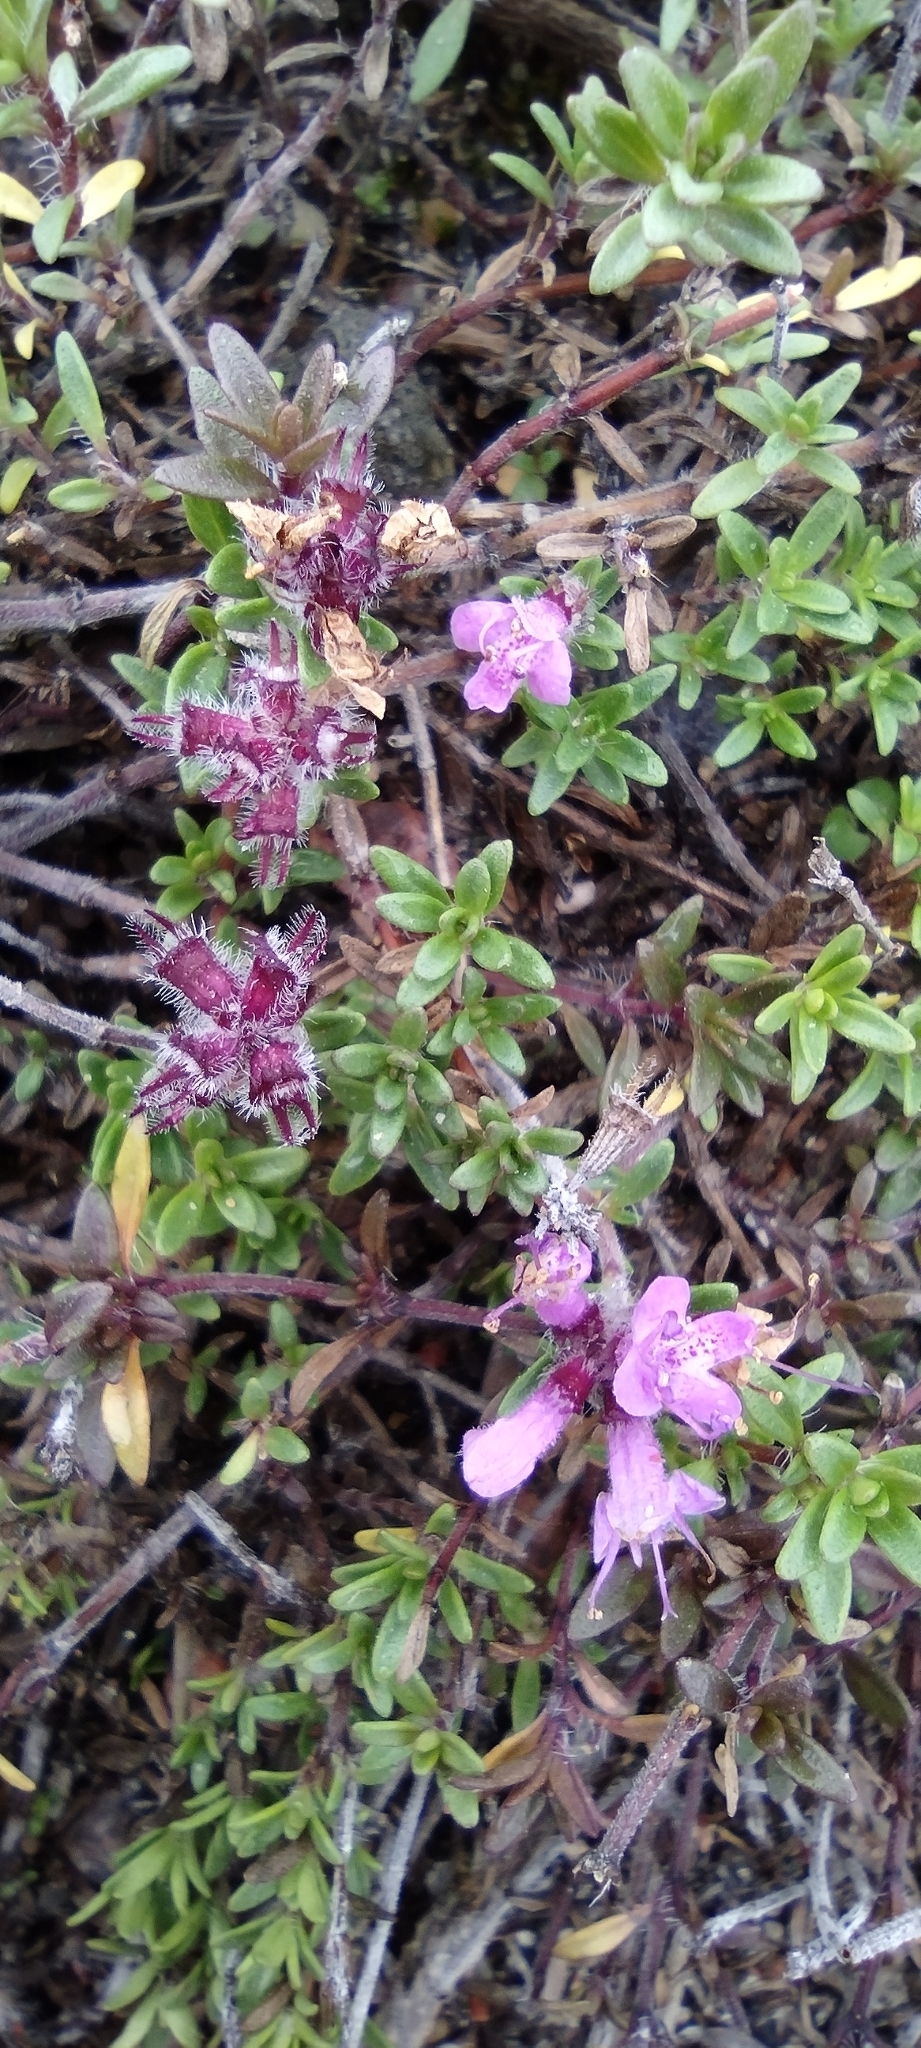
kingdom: Plantae
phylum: Tracheophyta
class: Magnoliopsida
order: Lamiales
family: Lamiaceae
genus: Thymus
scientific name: Thymus serpyllum
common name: Breckland thyme
